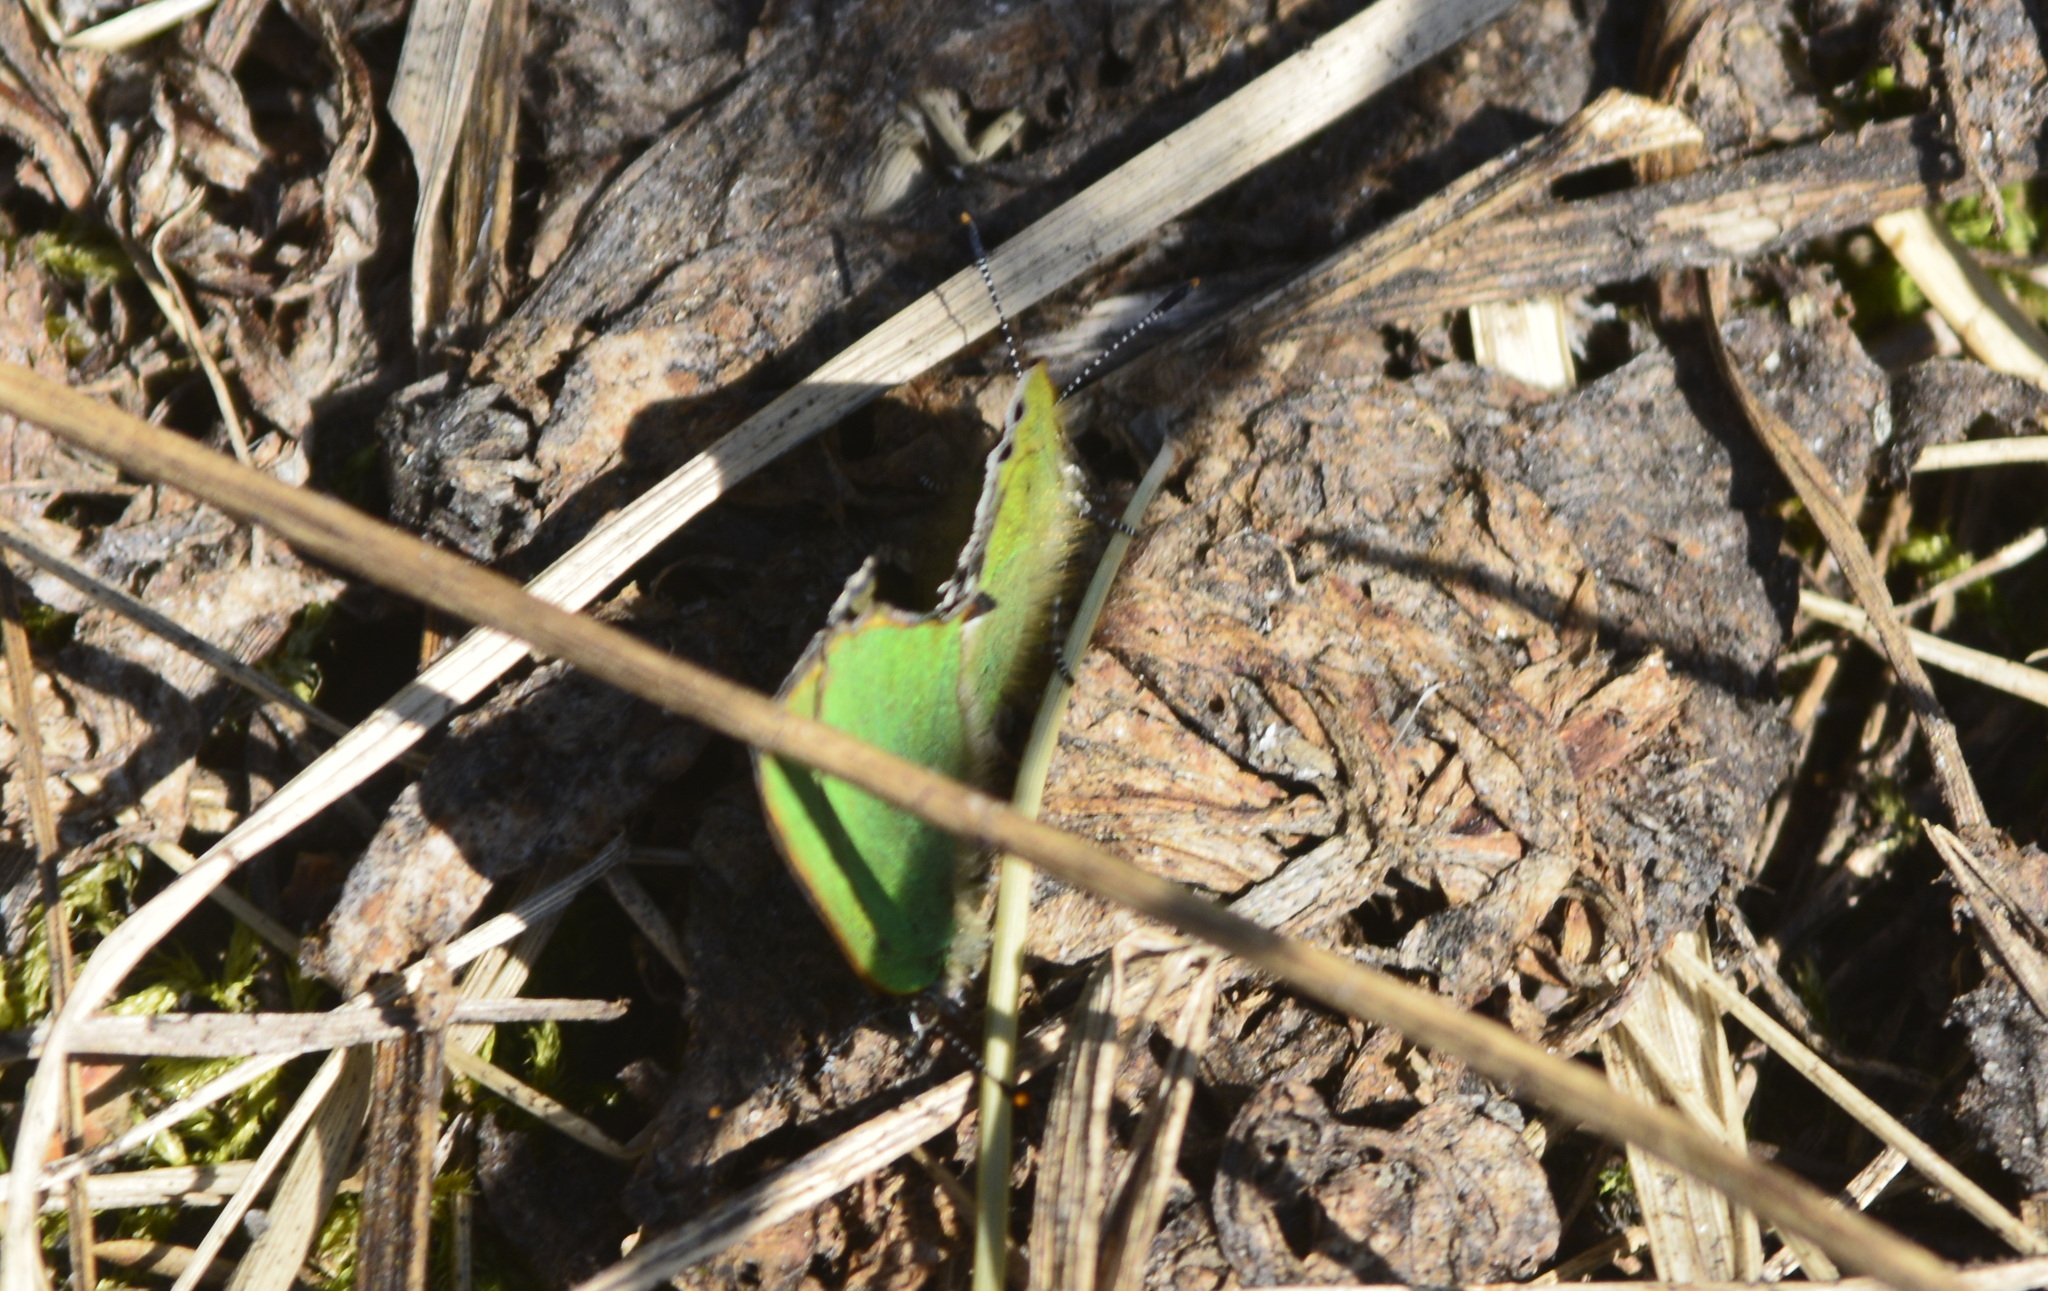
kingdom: Animalia
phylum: Arthropoda
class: Insecta
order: Lepidoptera
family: Lycaenidae
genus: Callophrys
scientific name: Callophrys rubi
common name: Green hairstreak
